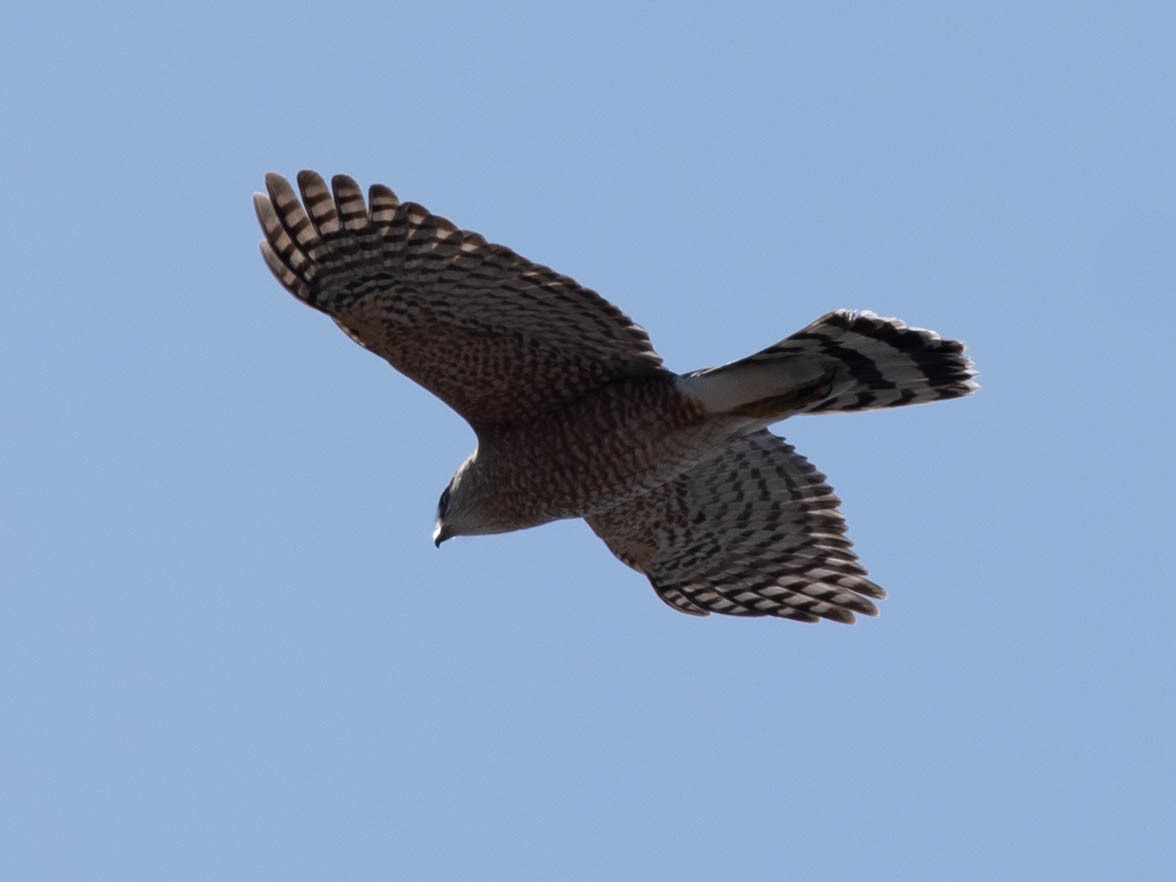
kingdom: Animalia
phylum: Chordata
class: Aves
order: Accipitriformes
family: Accipitridae
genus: Accipiter
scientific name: Accipiter cooperii
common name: Cooper's hawk
